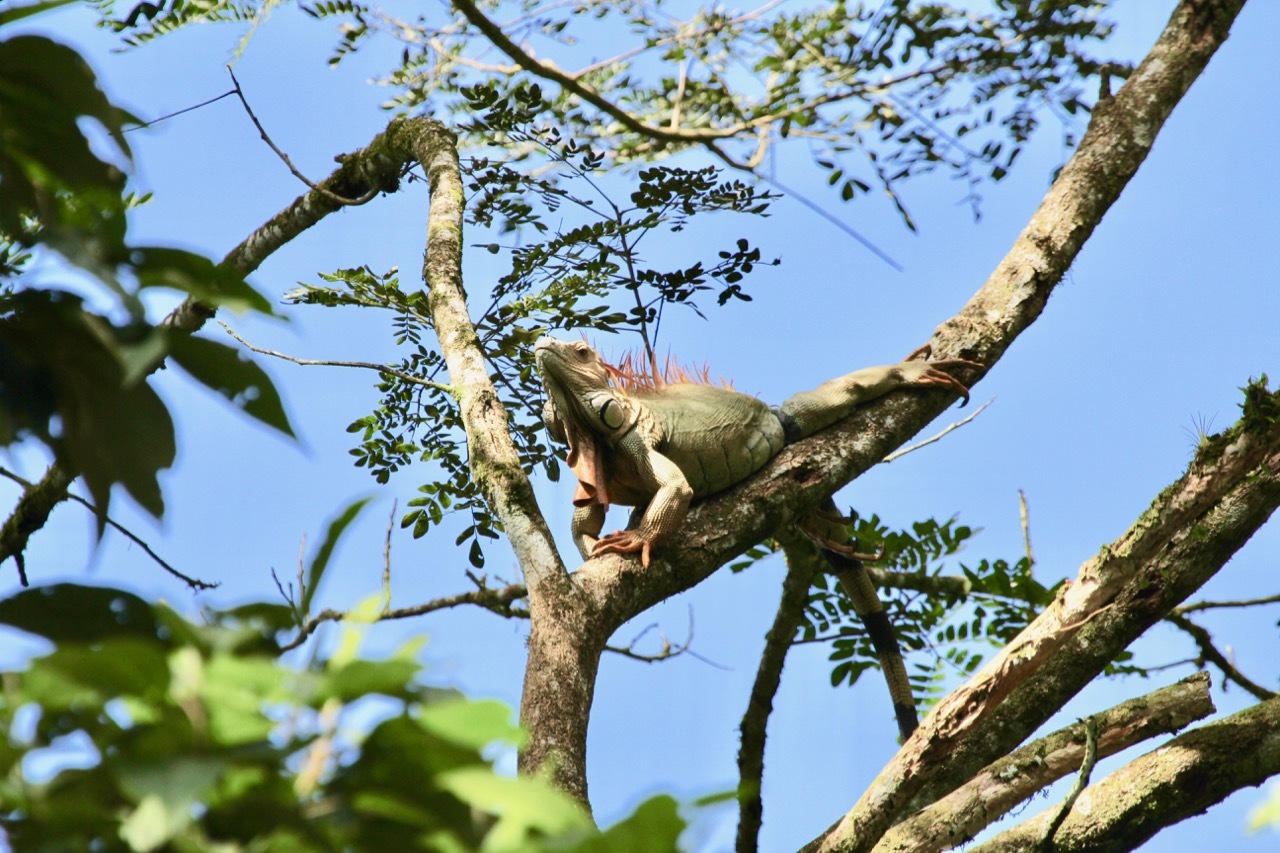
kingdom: Animalia
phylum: Chordata
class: Squamata
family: Iguanidae
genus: Iguana
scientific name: Iguana iguana
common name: Green iguana
